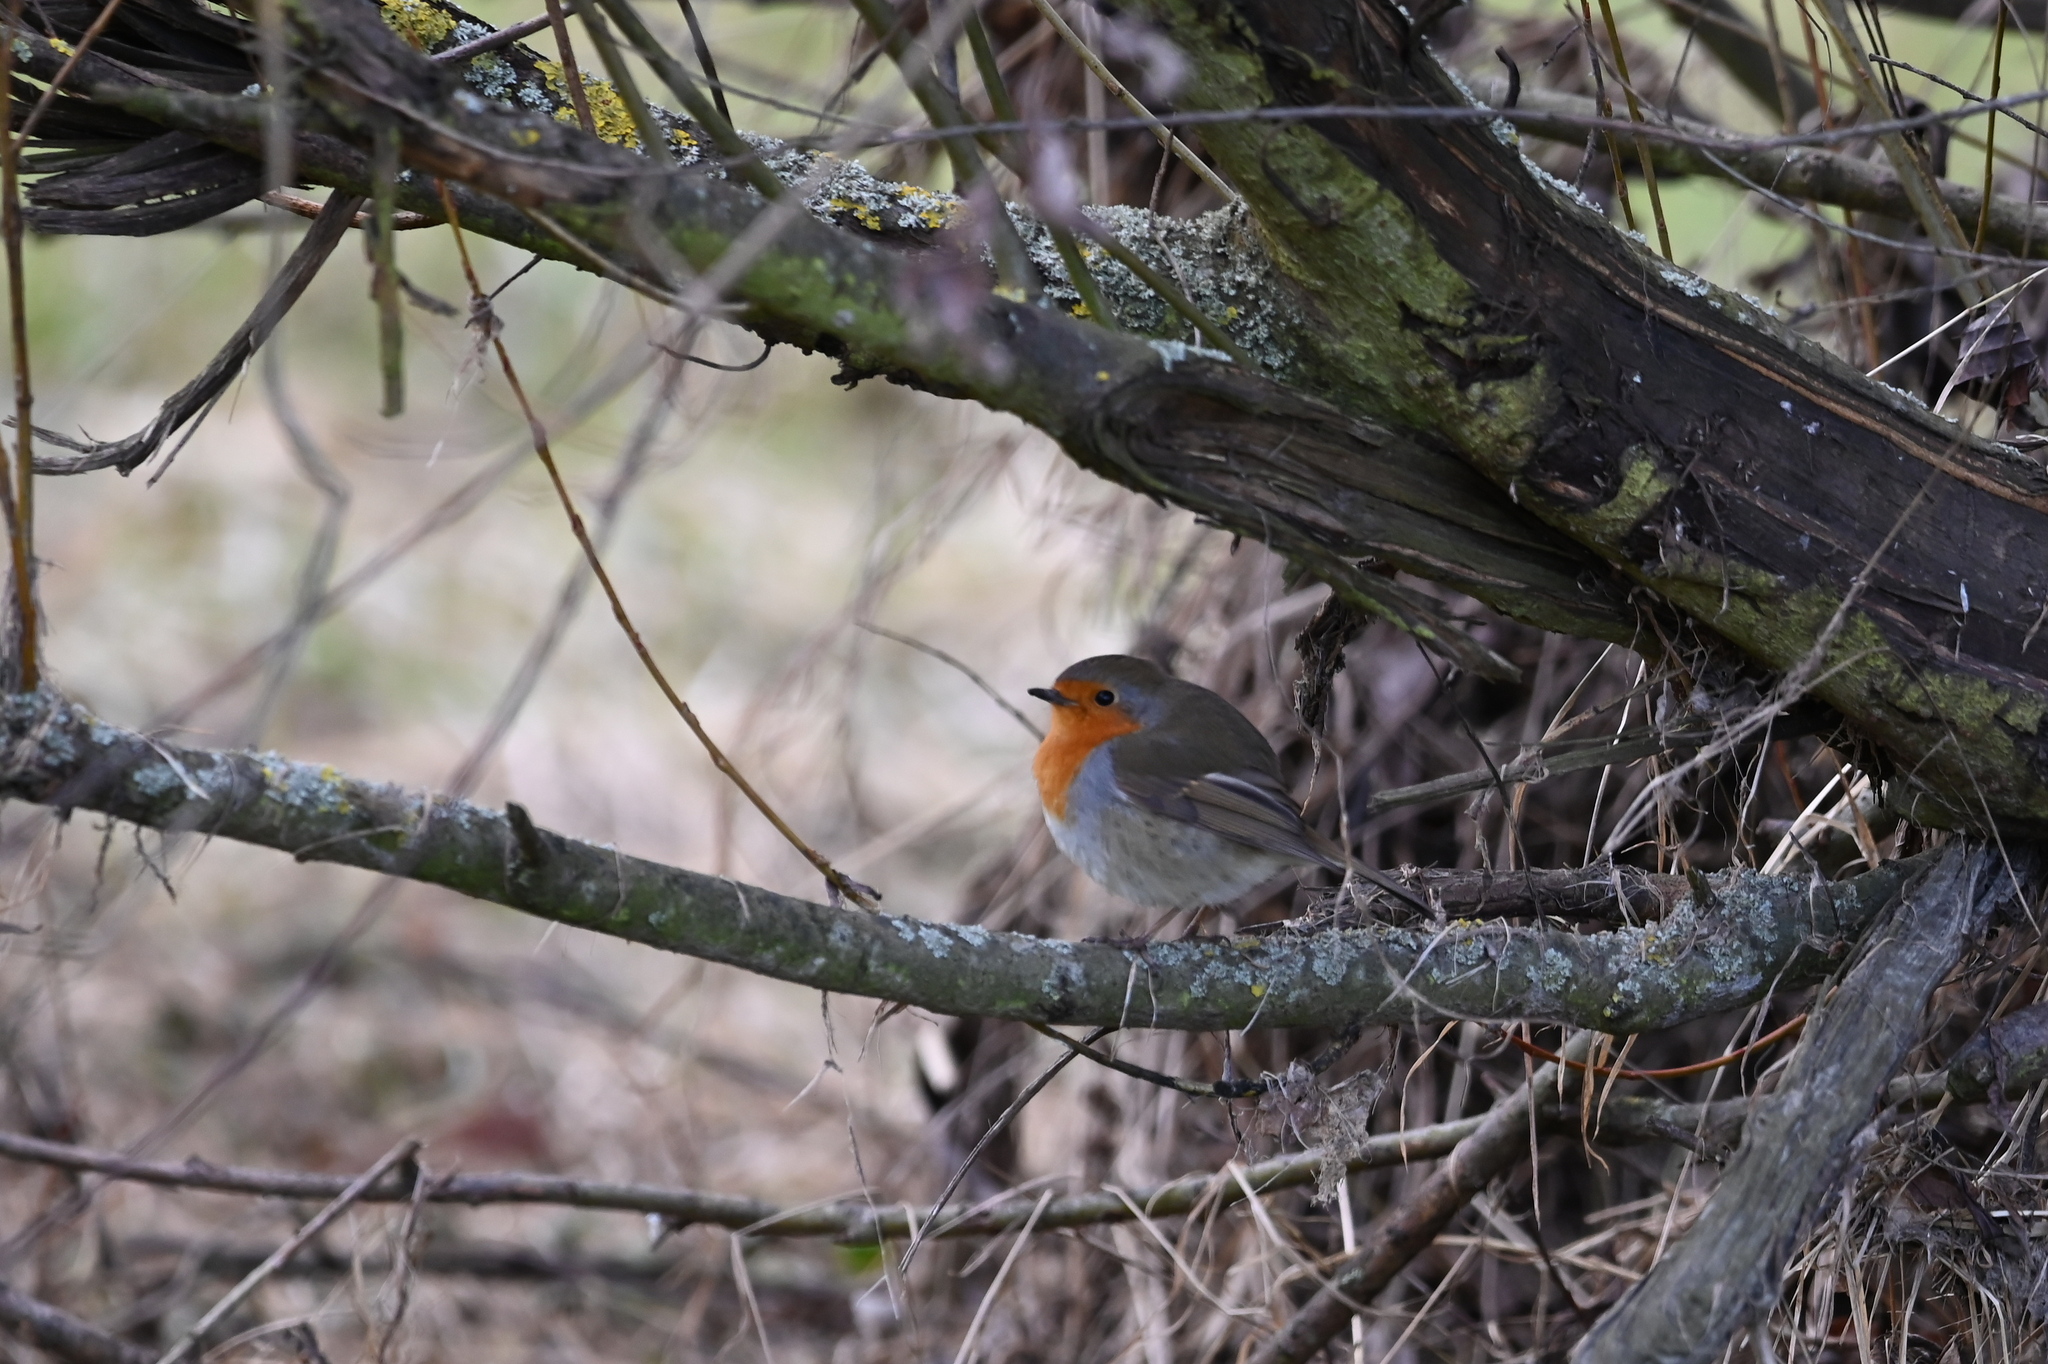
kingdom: Animalia
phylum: Chordata
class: Aves
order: Passeriformes
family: Muscicapidae
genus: Erithacus
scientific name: Erithacus rubecula
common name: European robin
